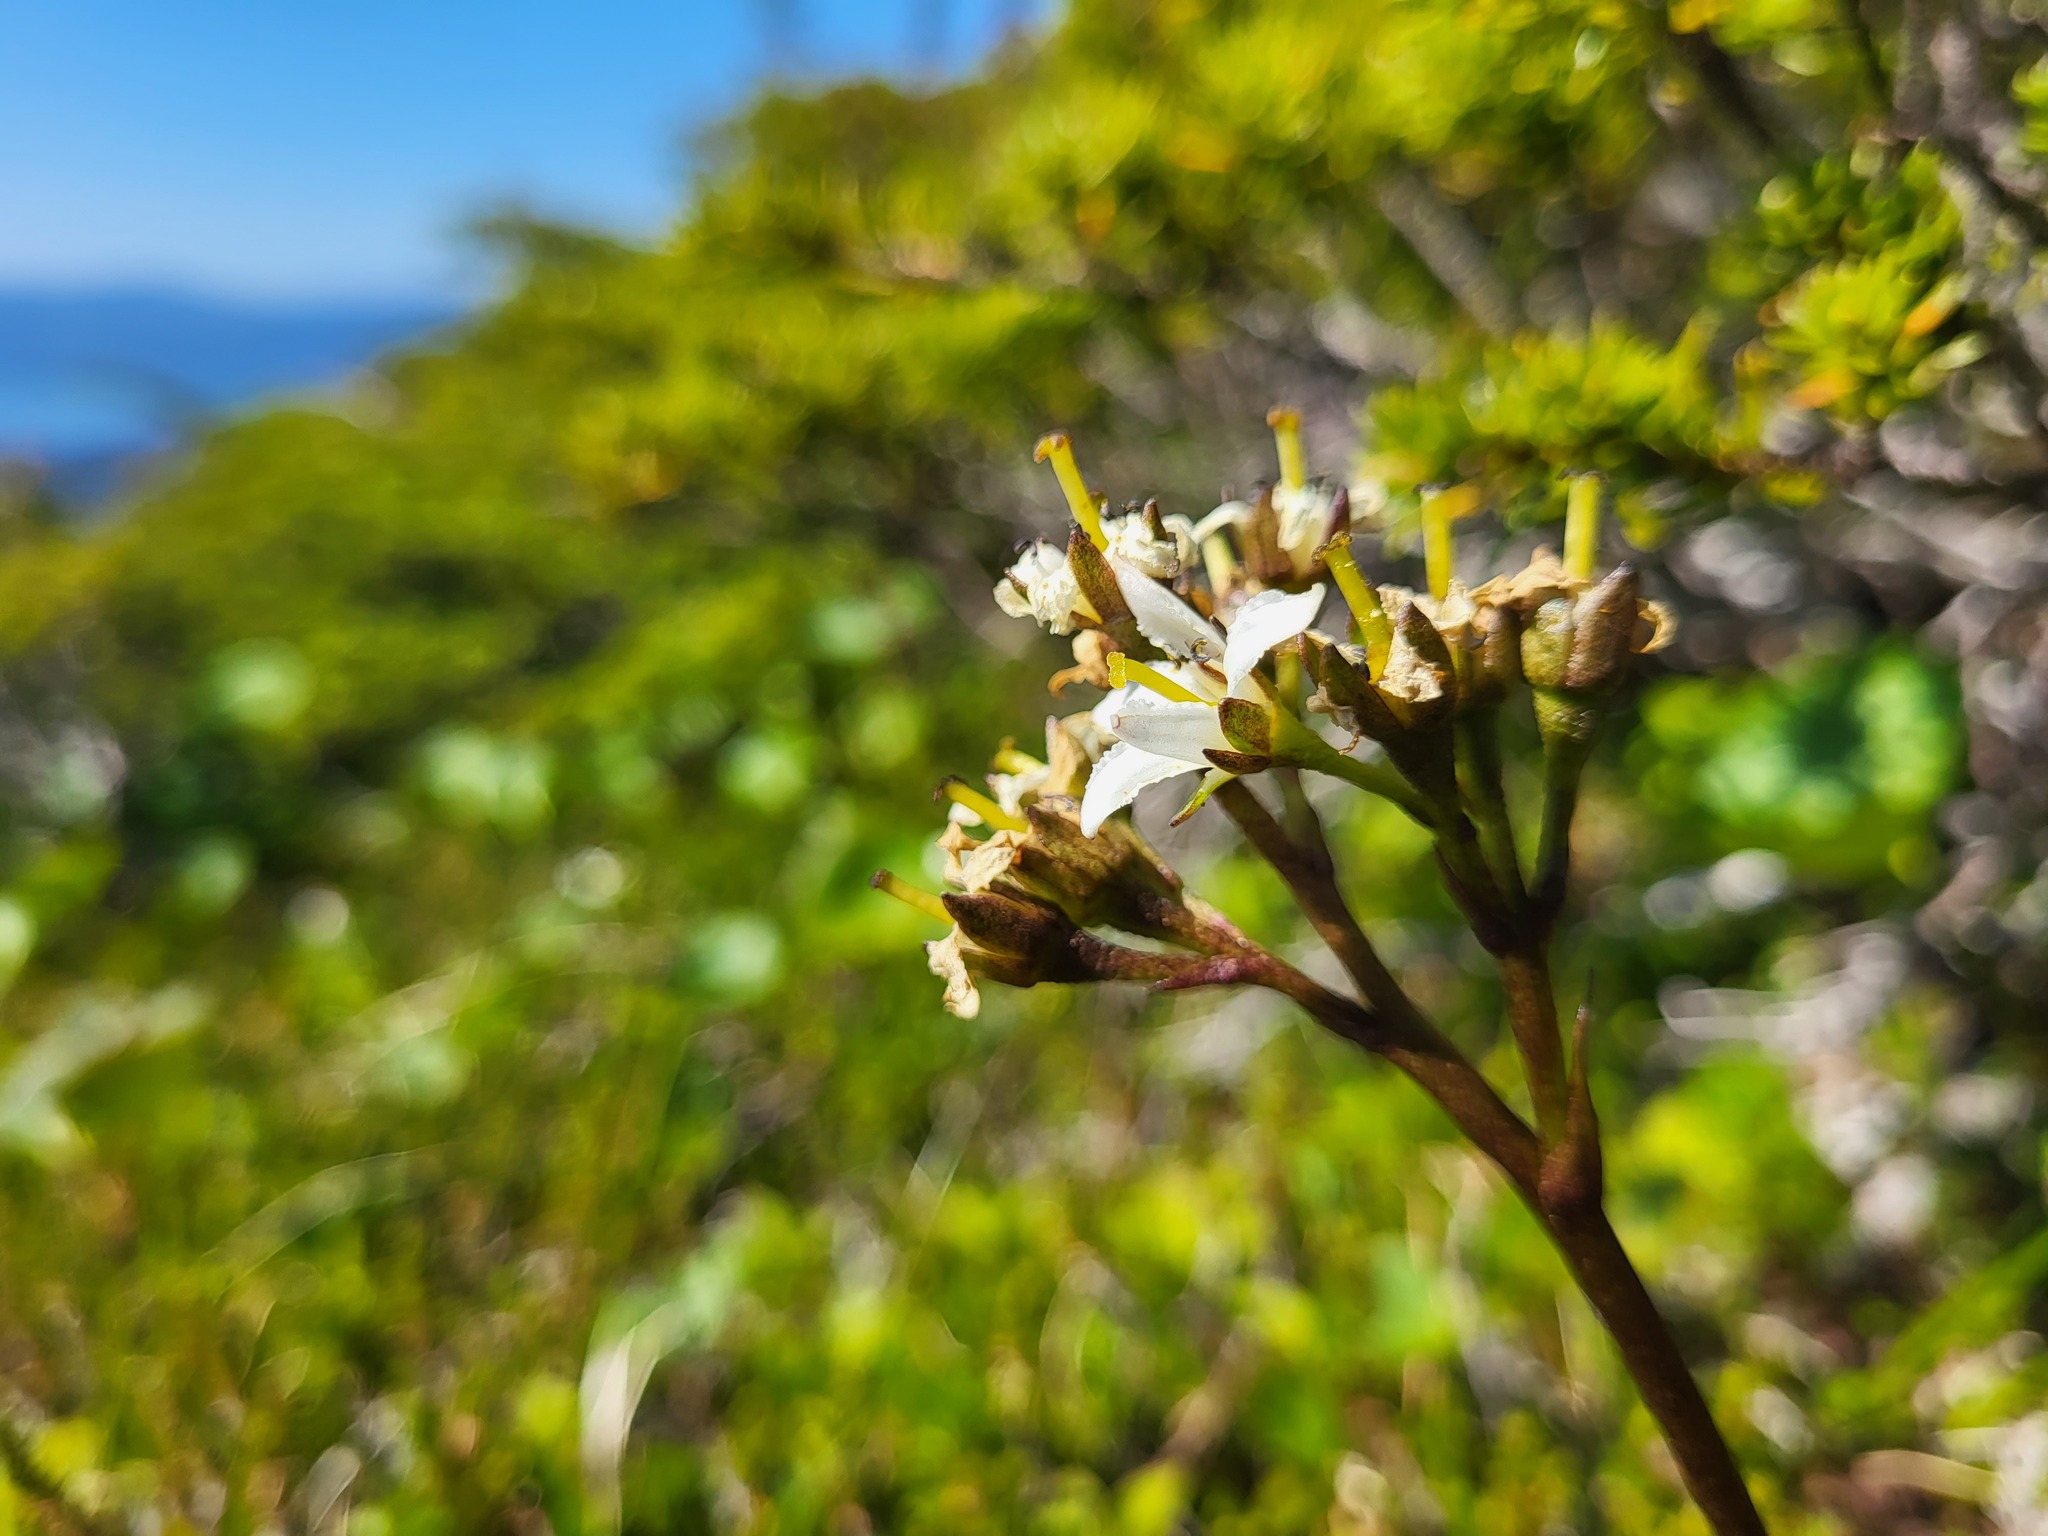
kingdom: Plantae
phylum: Tracheophyta
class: Magnoliopsida
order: Asterales
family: Menyanthaceae
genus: Nephrophyllidium
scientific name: Nephrophyllidium crista-galli
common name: Deer-cabbage
